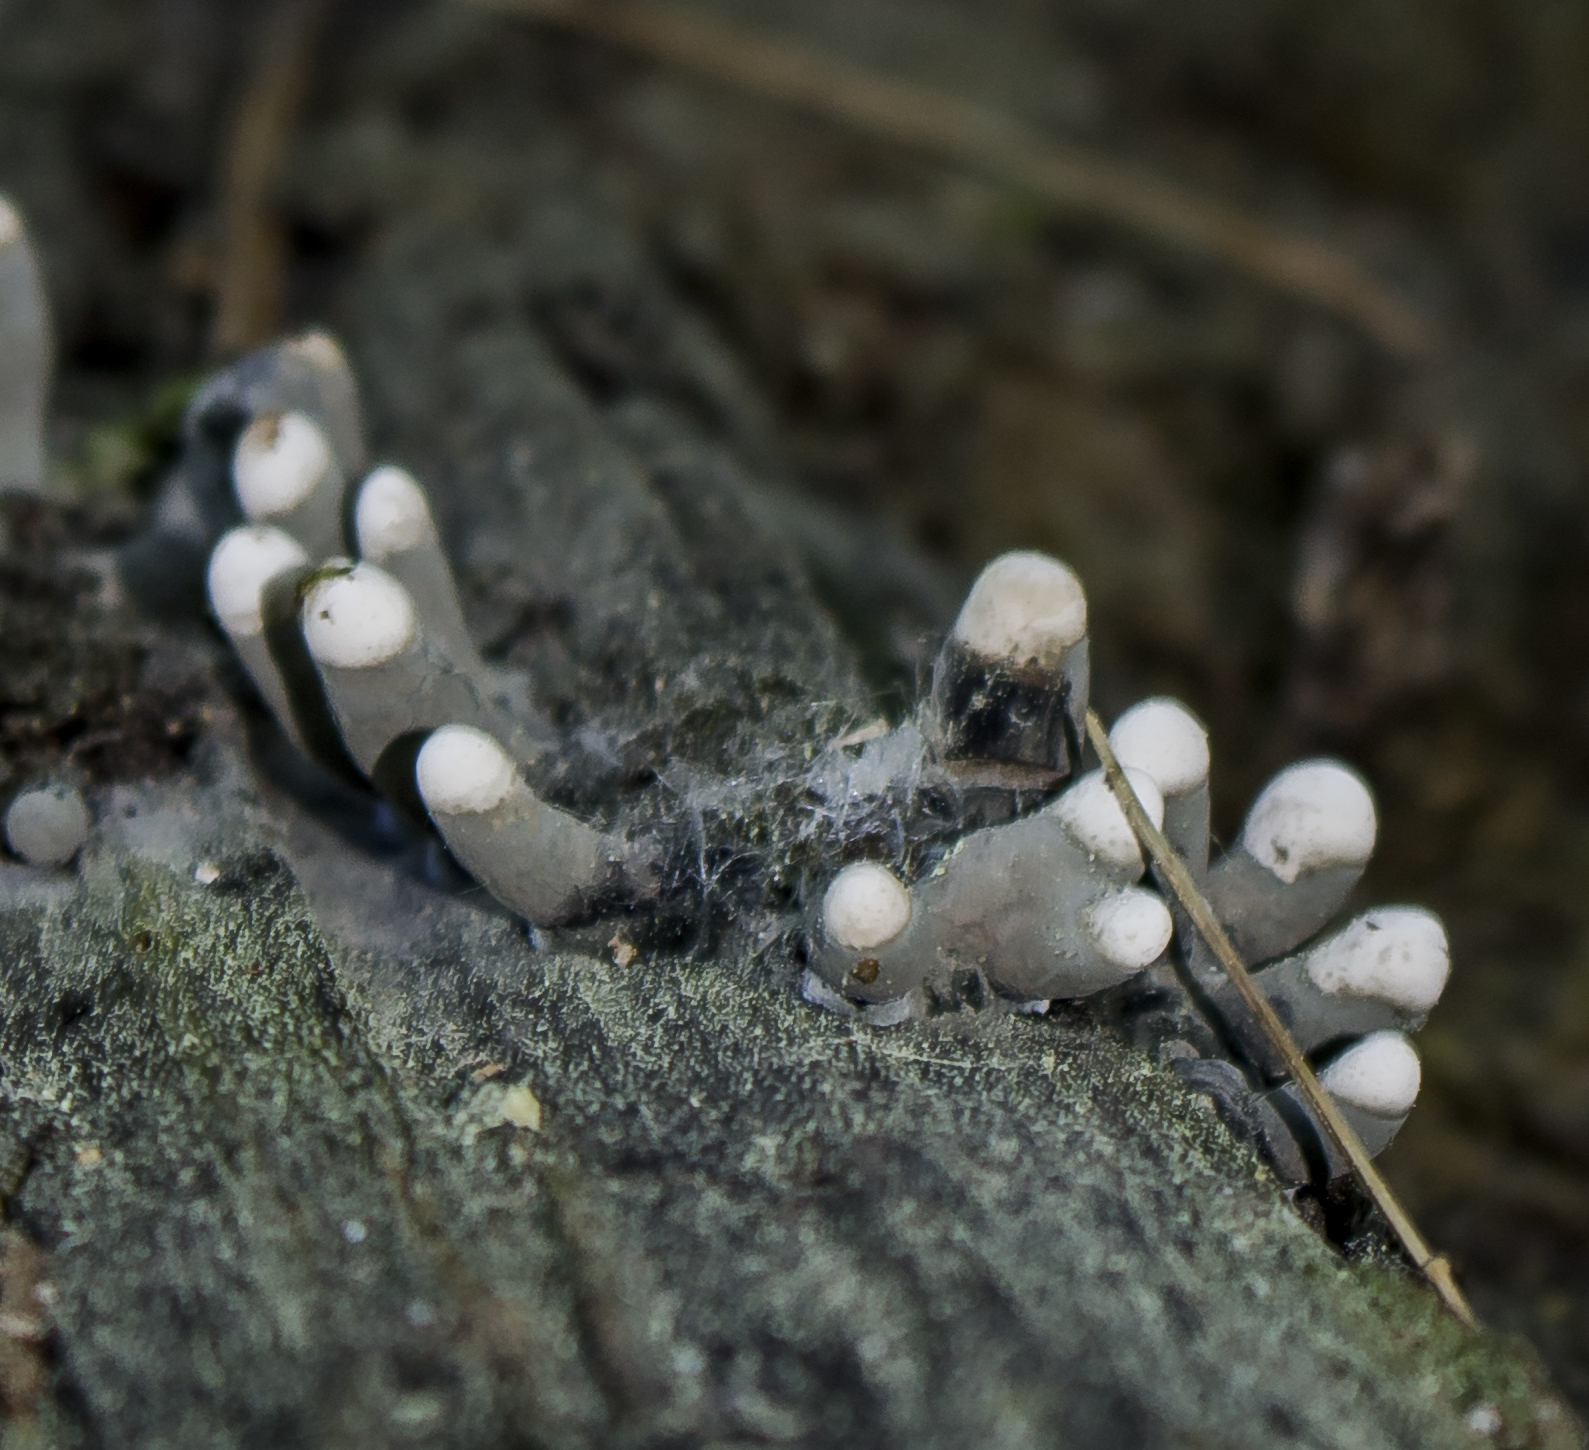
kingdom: Fungi
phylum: Ascomycota
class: Sordariomycetes
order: Xylariales
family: Xylariaceae
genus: Xylaria
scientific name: Xylaria polymorpha
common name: Dead man's fingers
